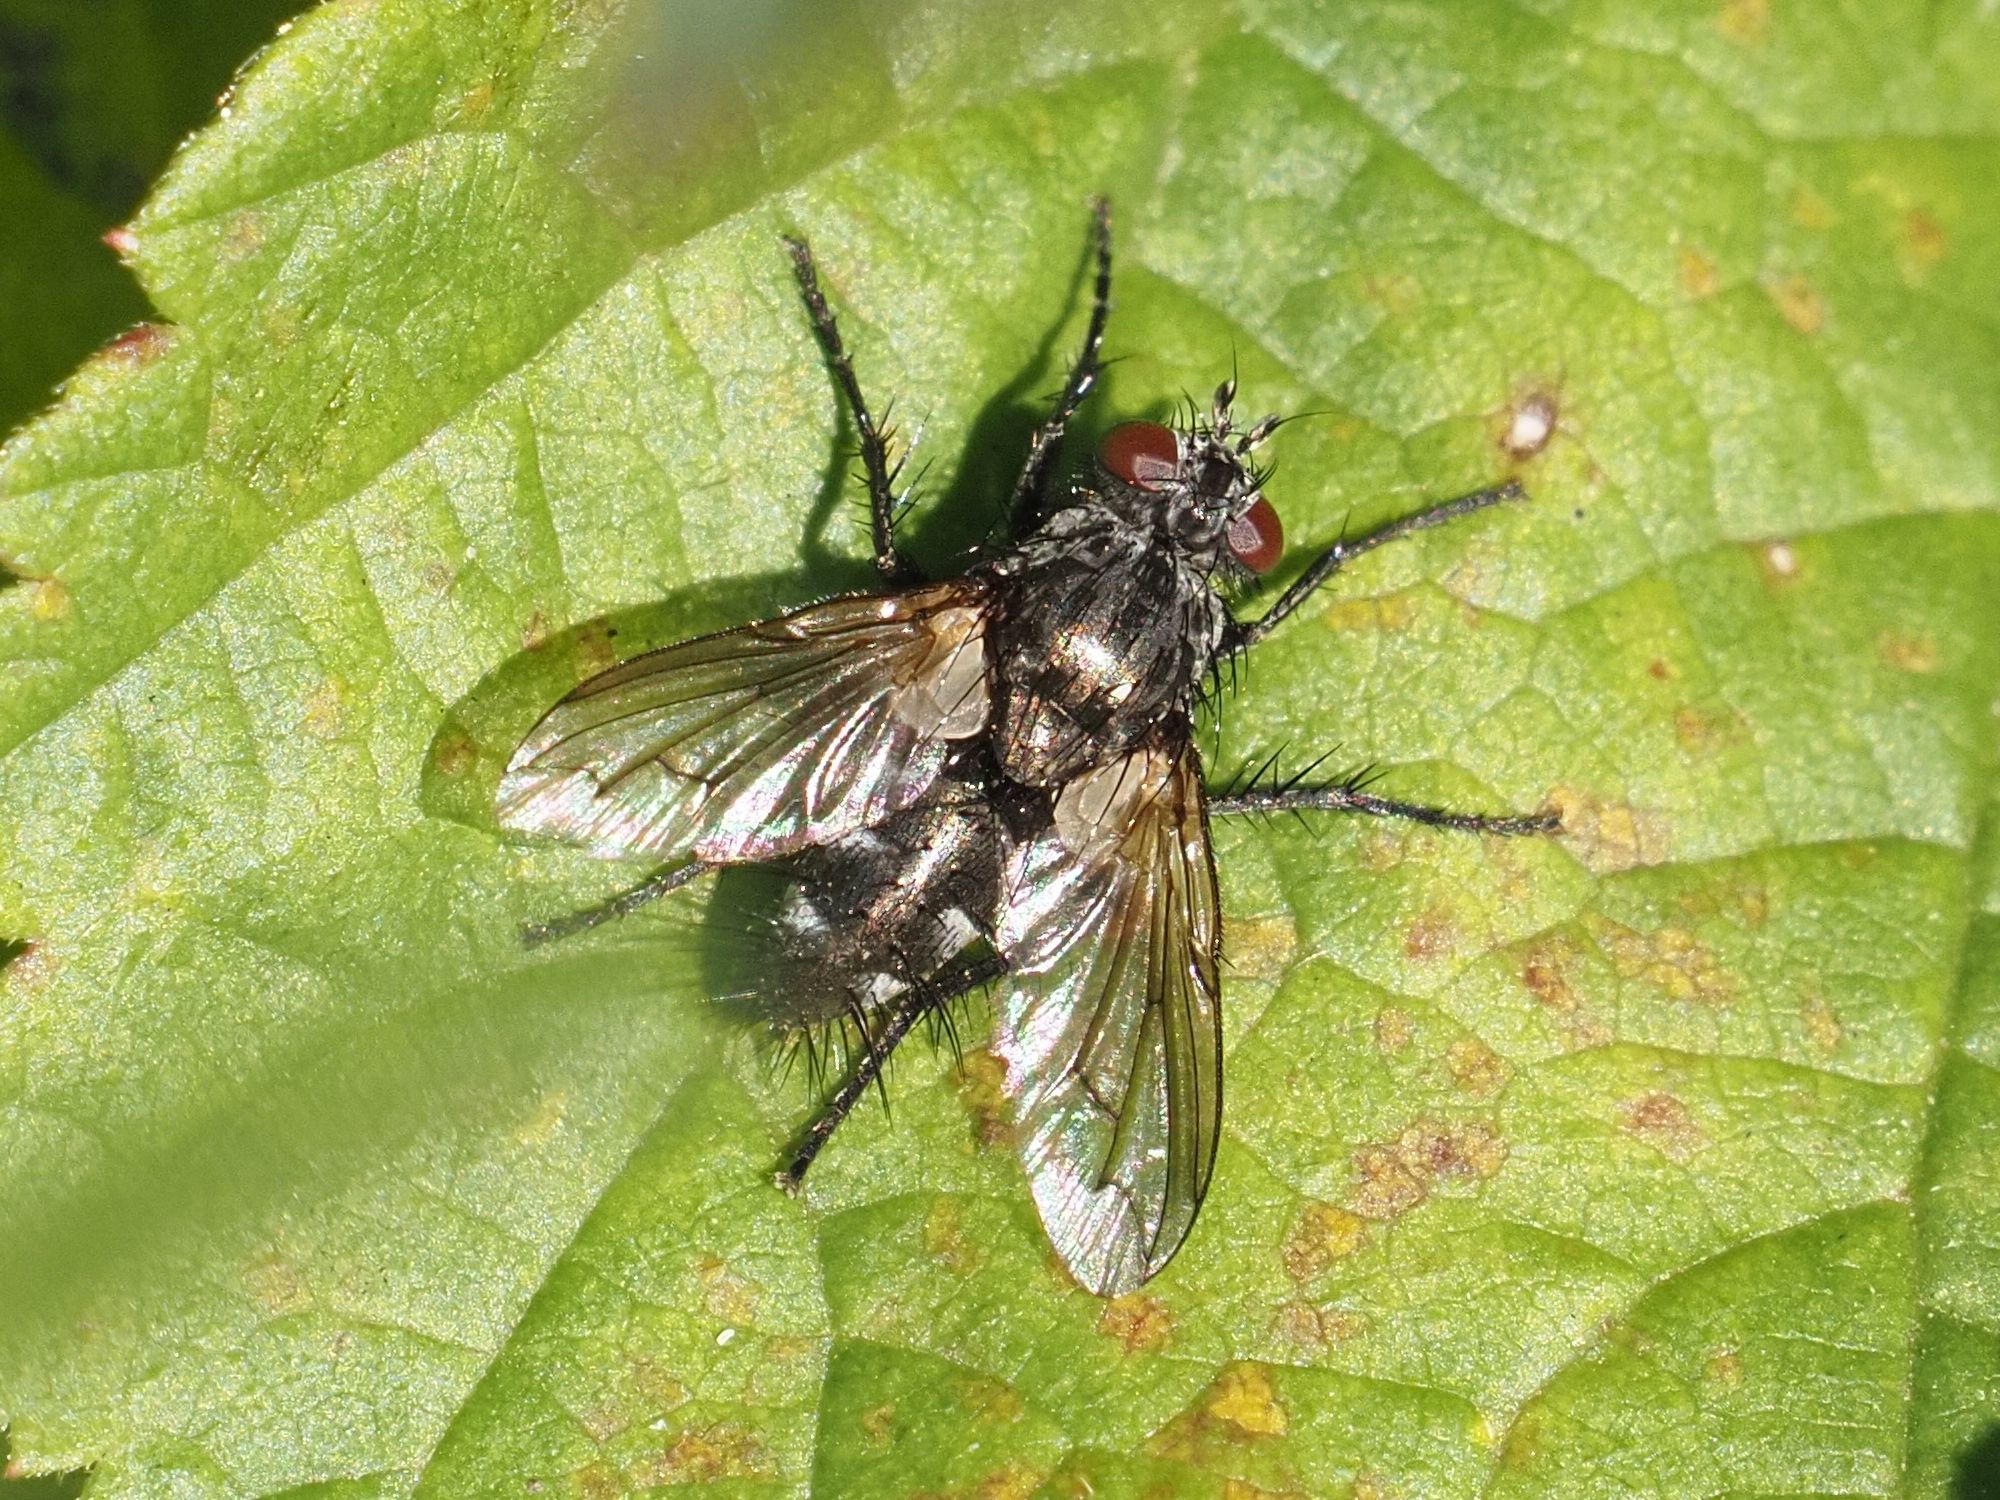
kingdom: Animalia
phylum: Arthropoda
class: Insecta
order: Diptera
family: Tachinidae
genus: Periscepsia
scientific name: Periscepsia spathulata
